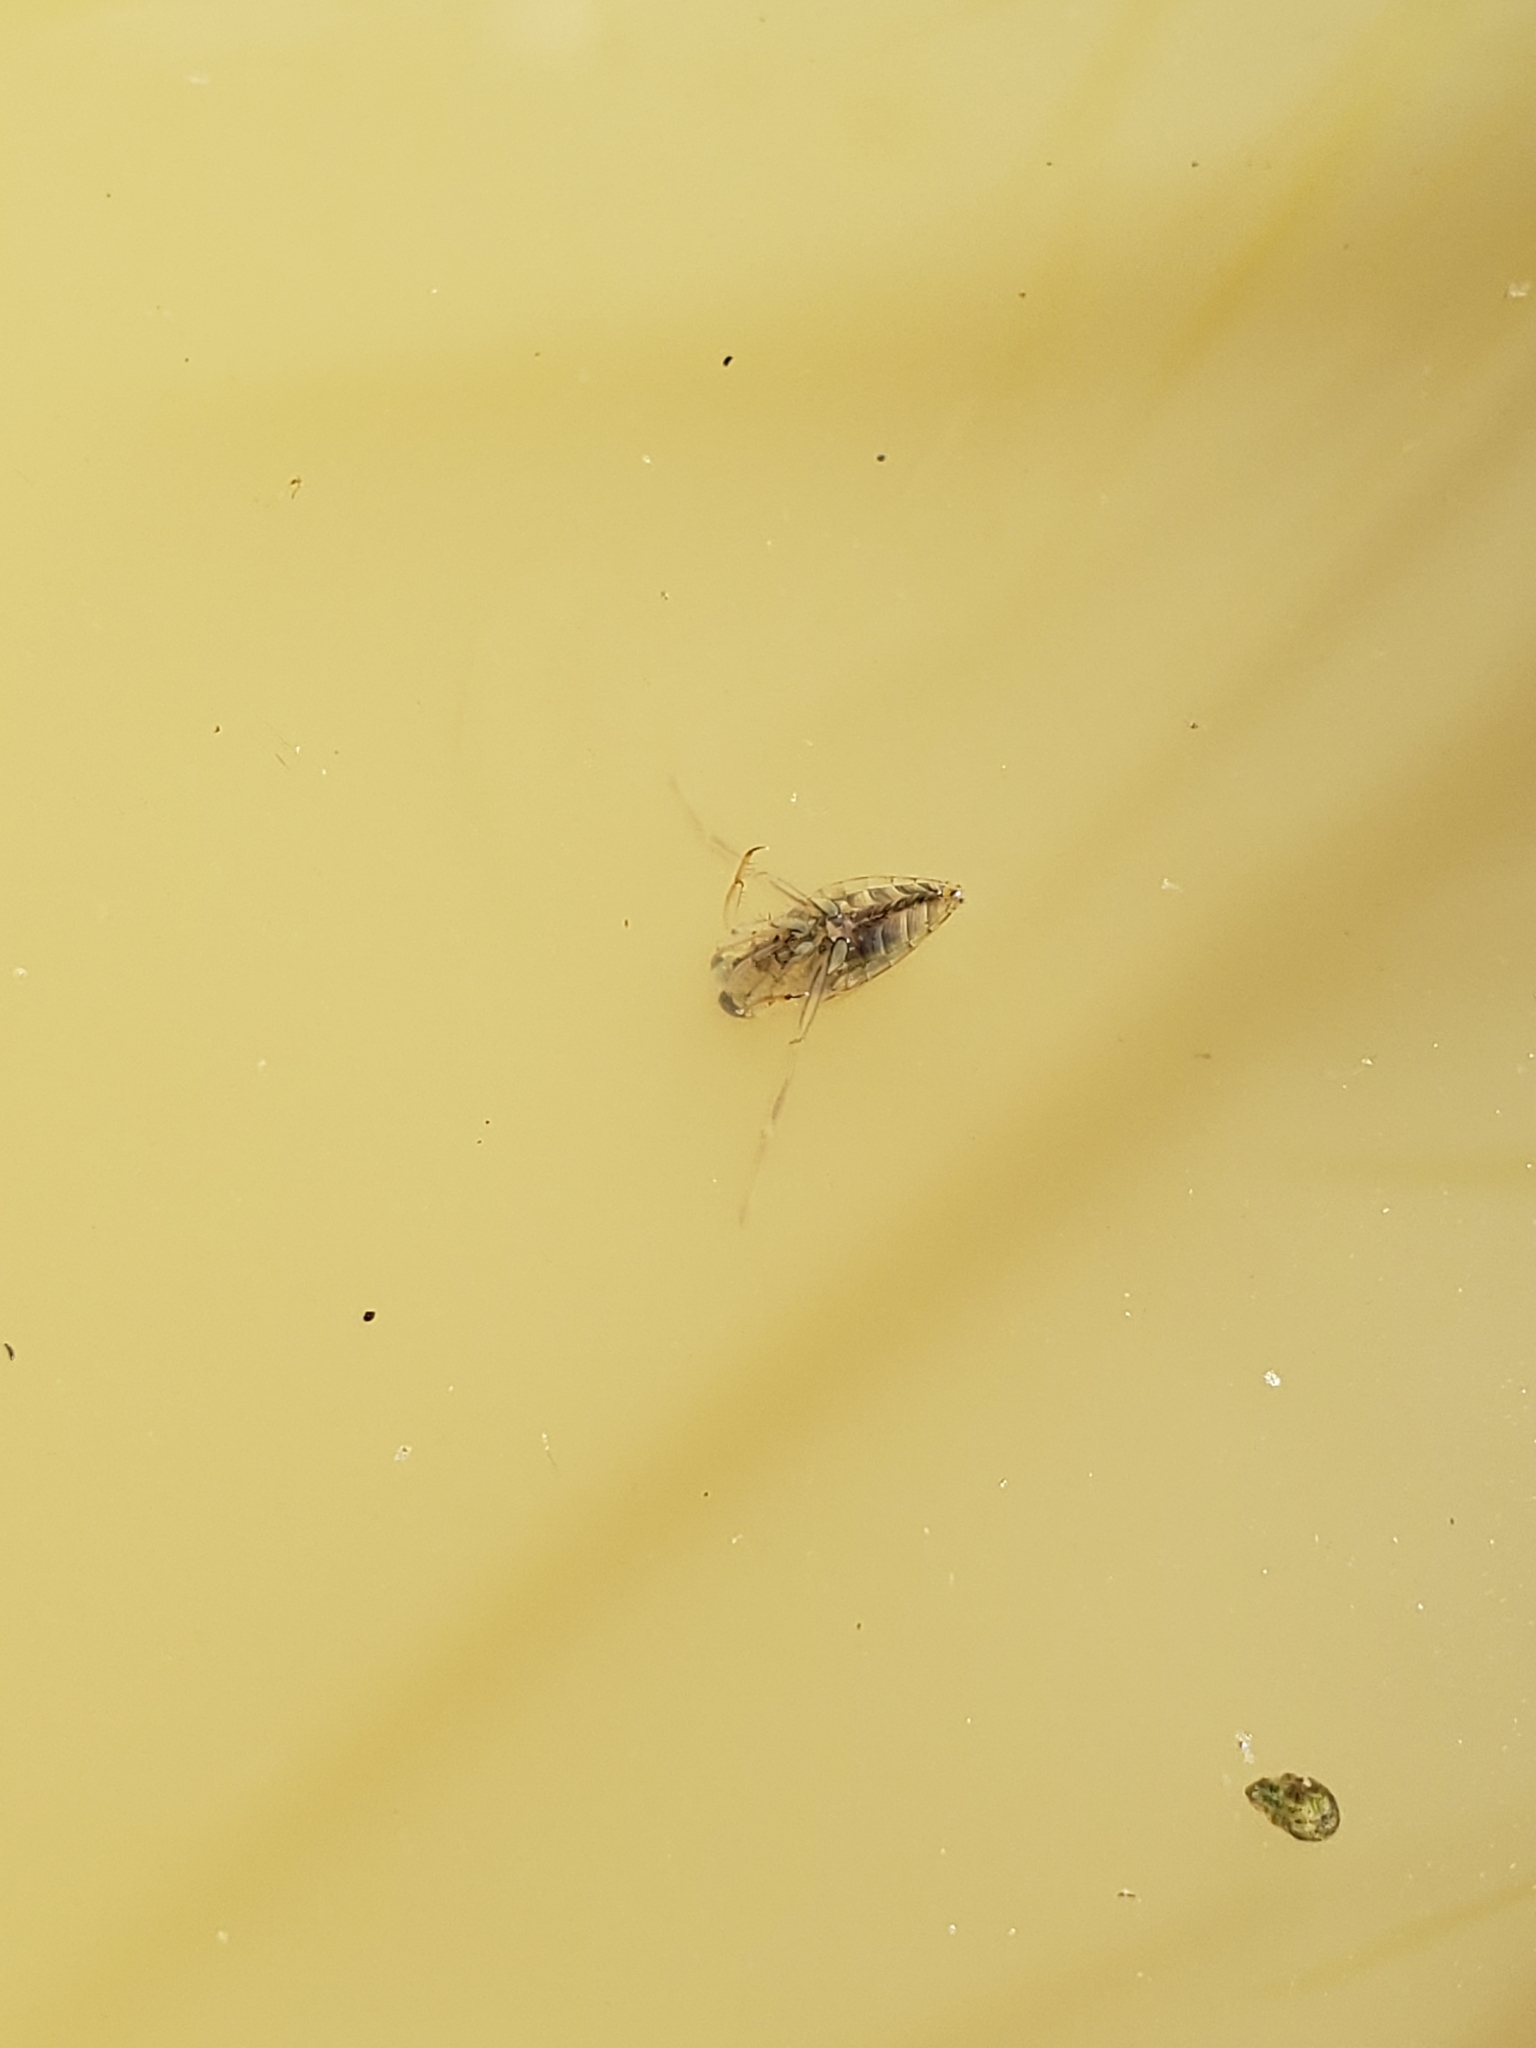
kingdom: Animalia
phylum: Arthropoda
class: Insecta
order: Hemiptera
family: Notonectidae
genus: Notonecta
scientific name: Notonecta
